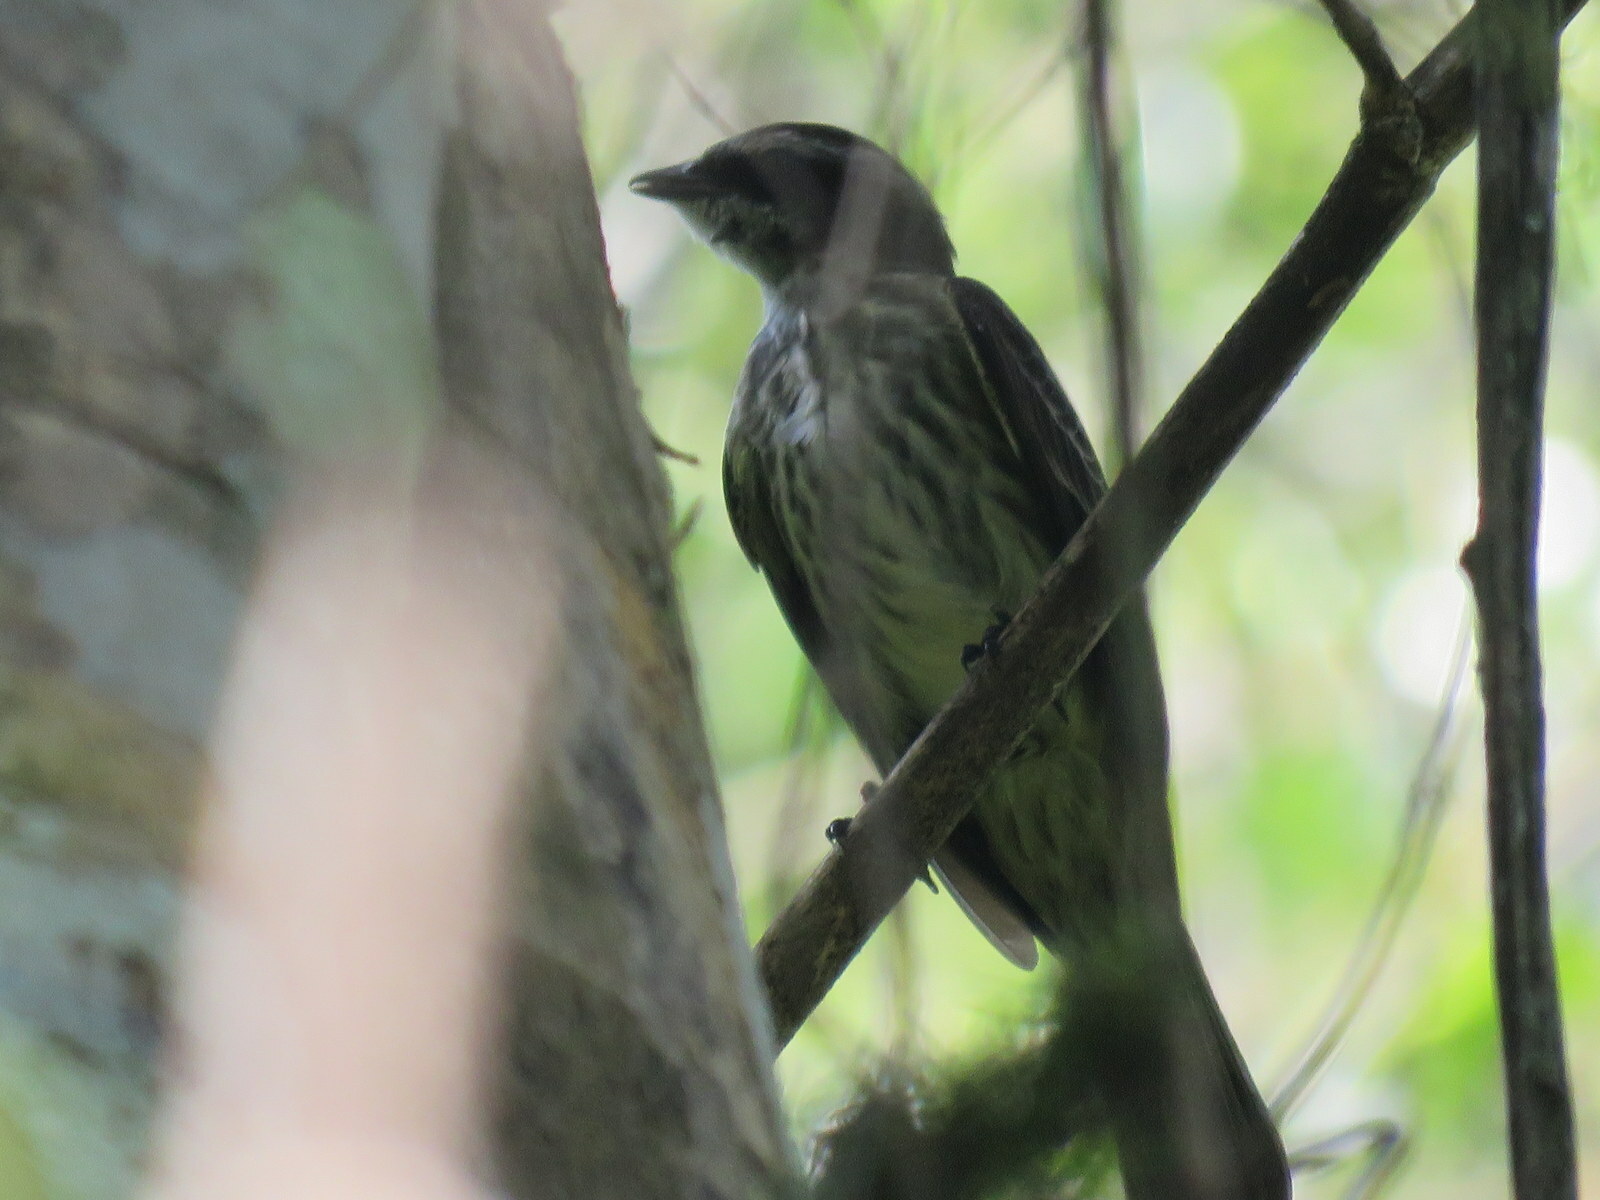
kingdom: Animalia
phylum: Chordata
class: Aves
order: Passeriformes
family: Tyrannidae
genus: Legatus
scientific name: Legatus leucophaius
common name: Piratic flycatcher
